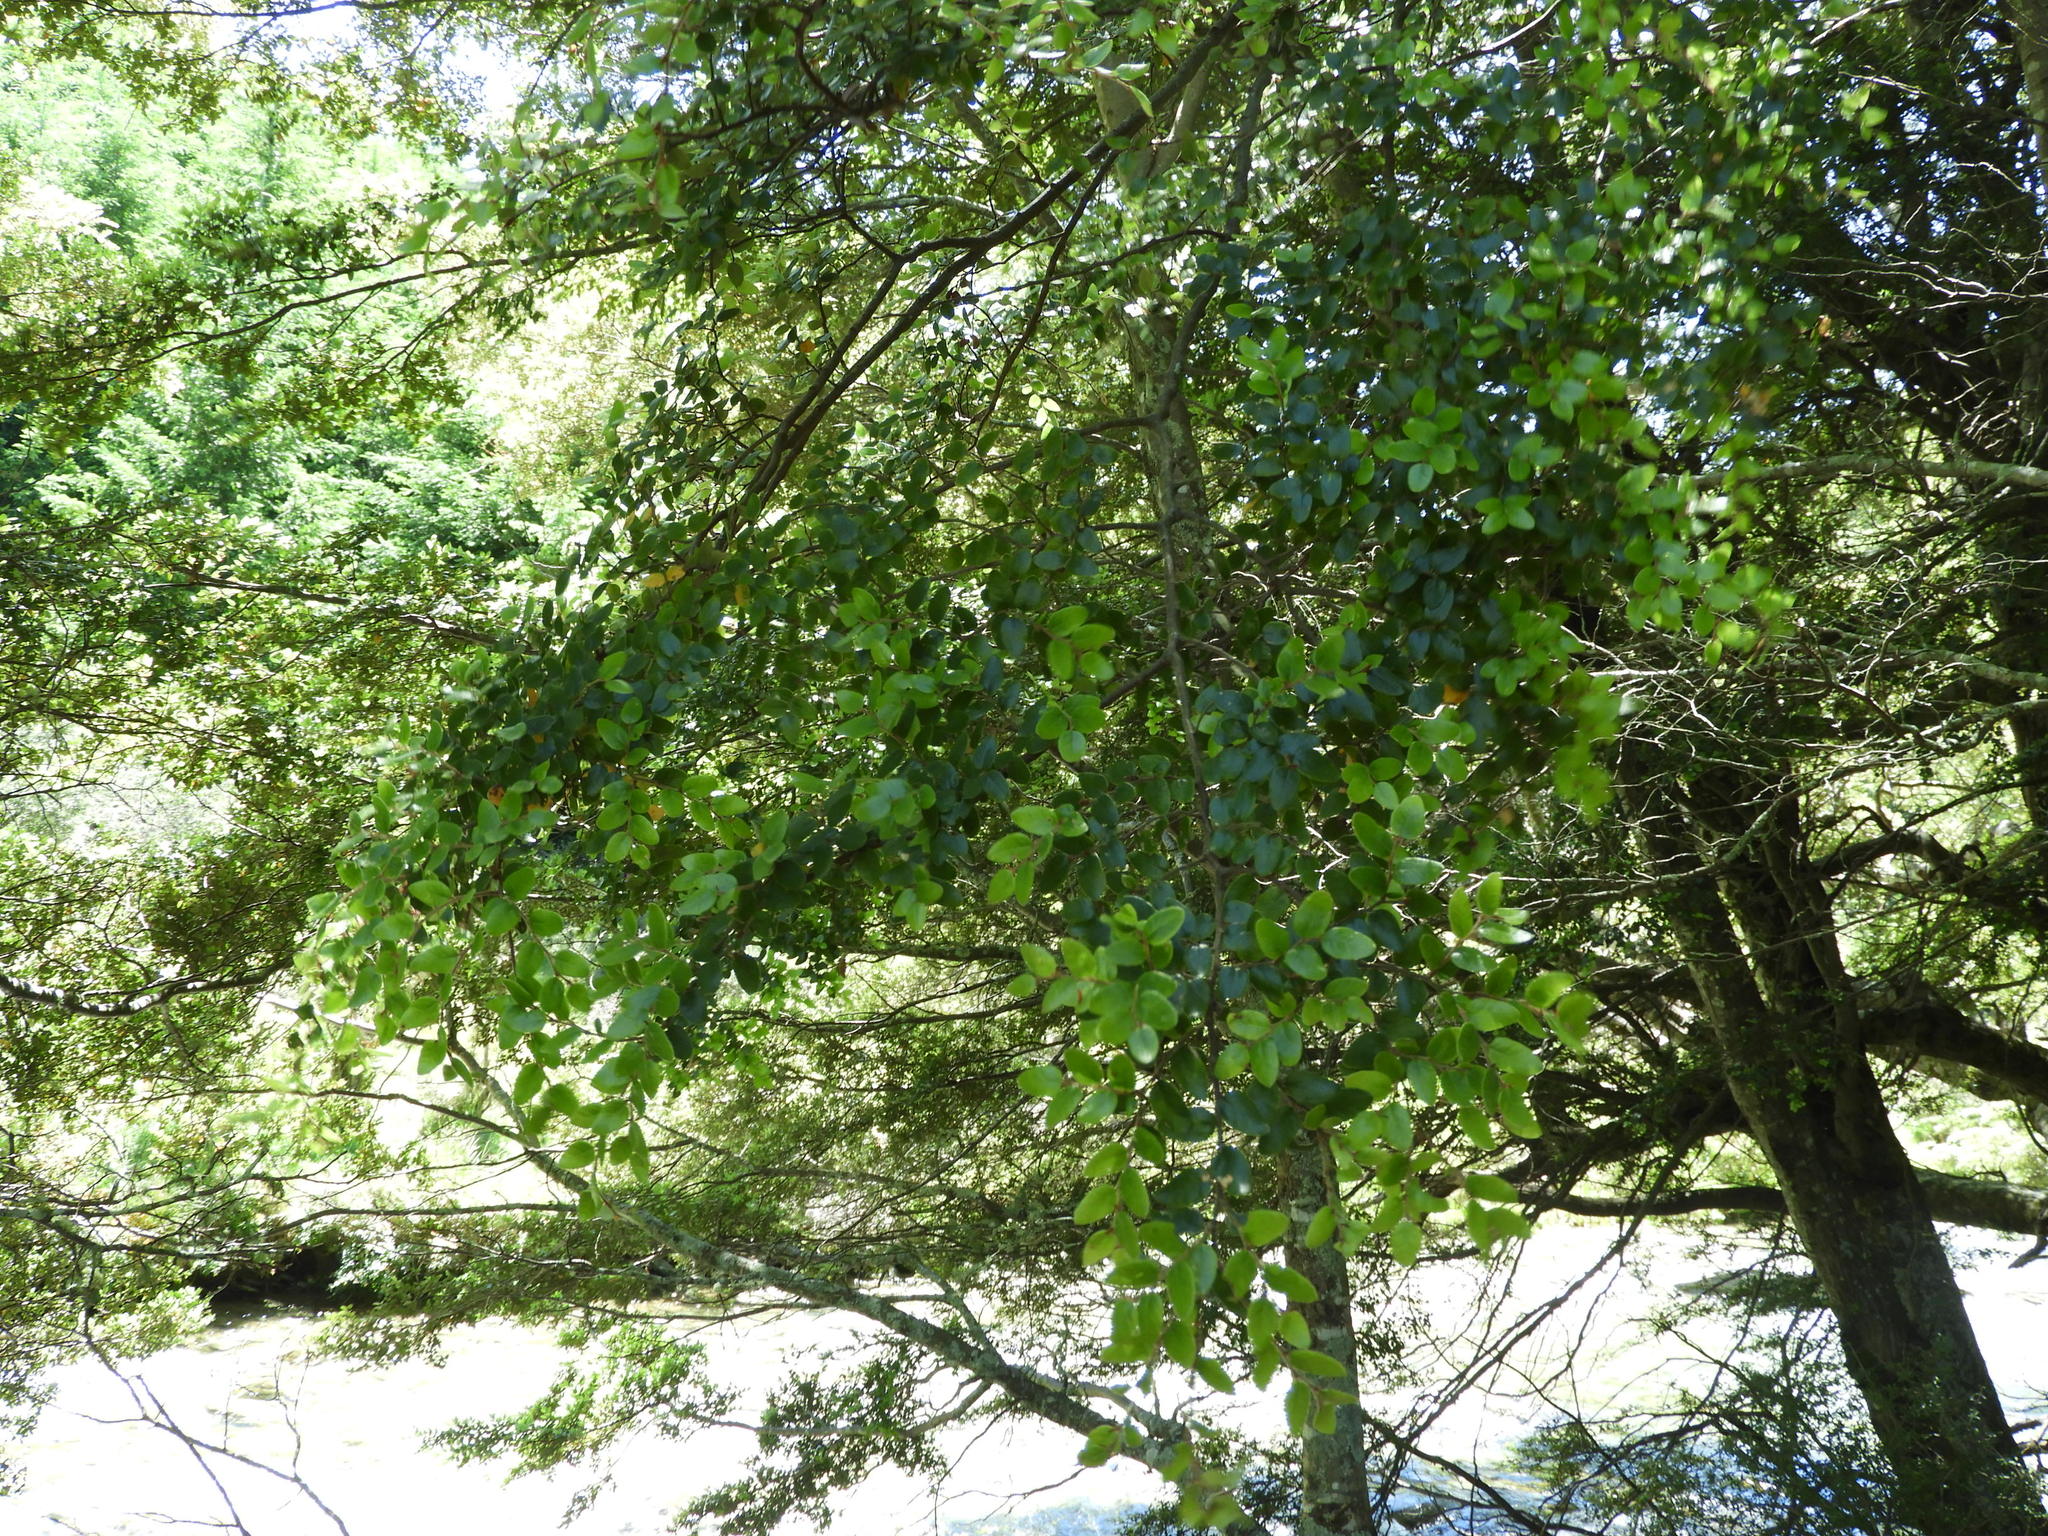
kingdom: Plantae
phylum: Tracheophyta
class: Magnoliopsida
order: Fagales
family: Nothofagaceae
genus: Nothofagus
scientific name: Nothofagus cliffortioides
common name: Mountain beech
